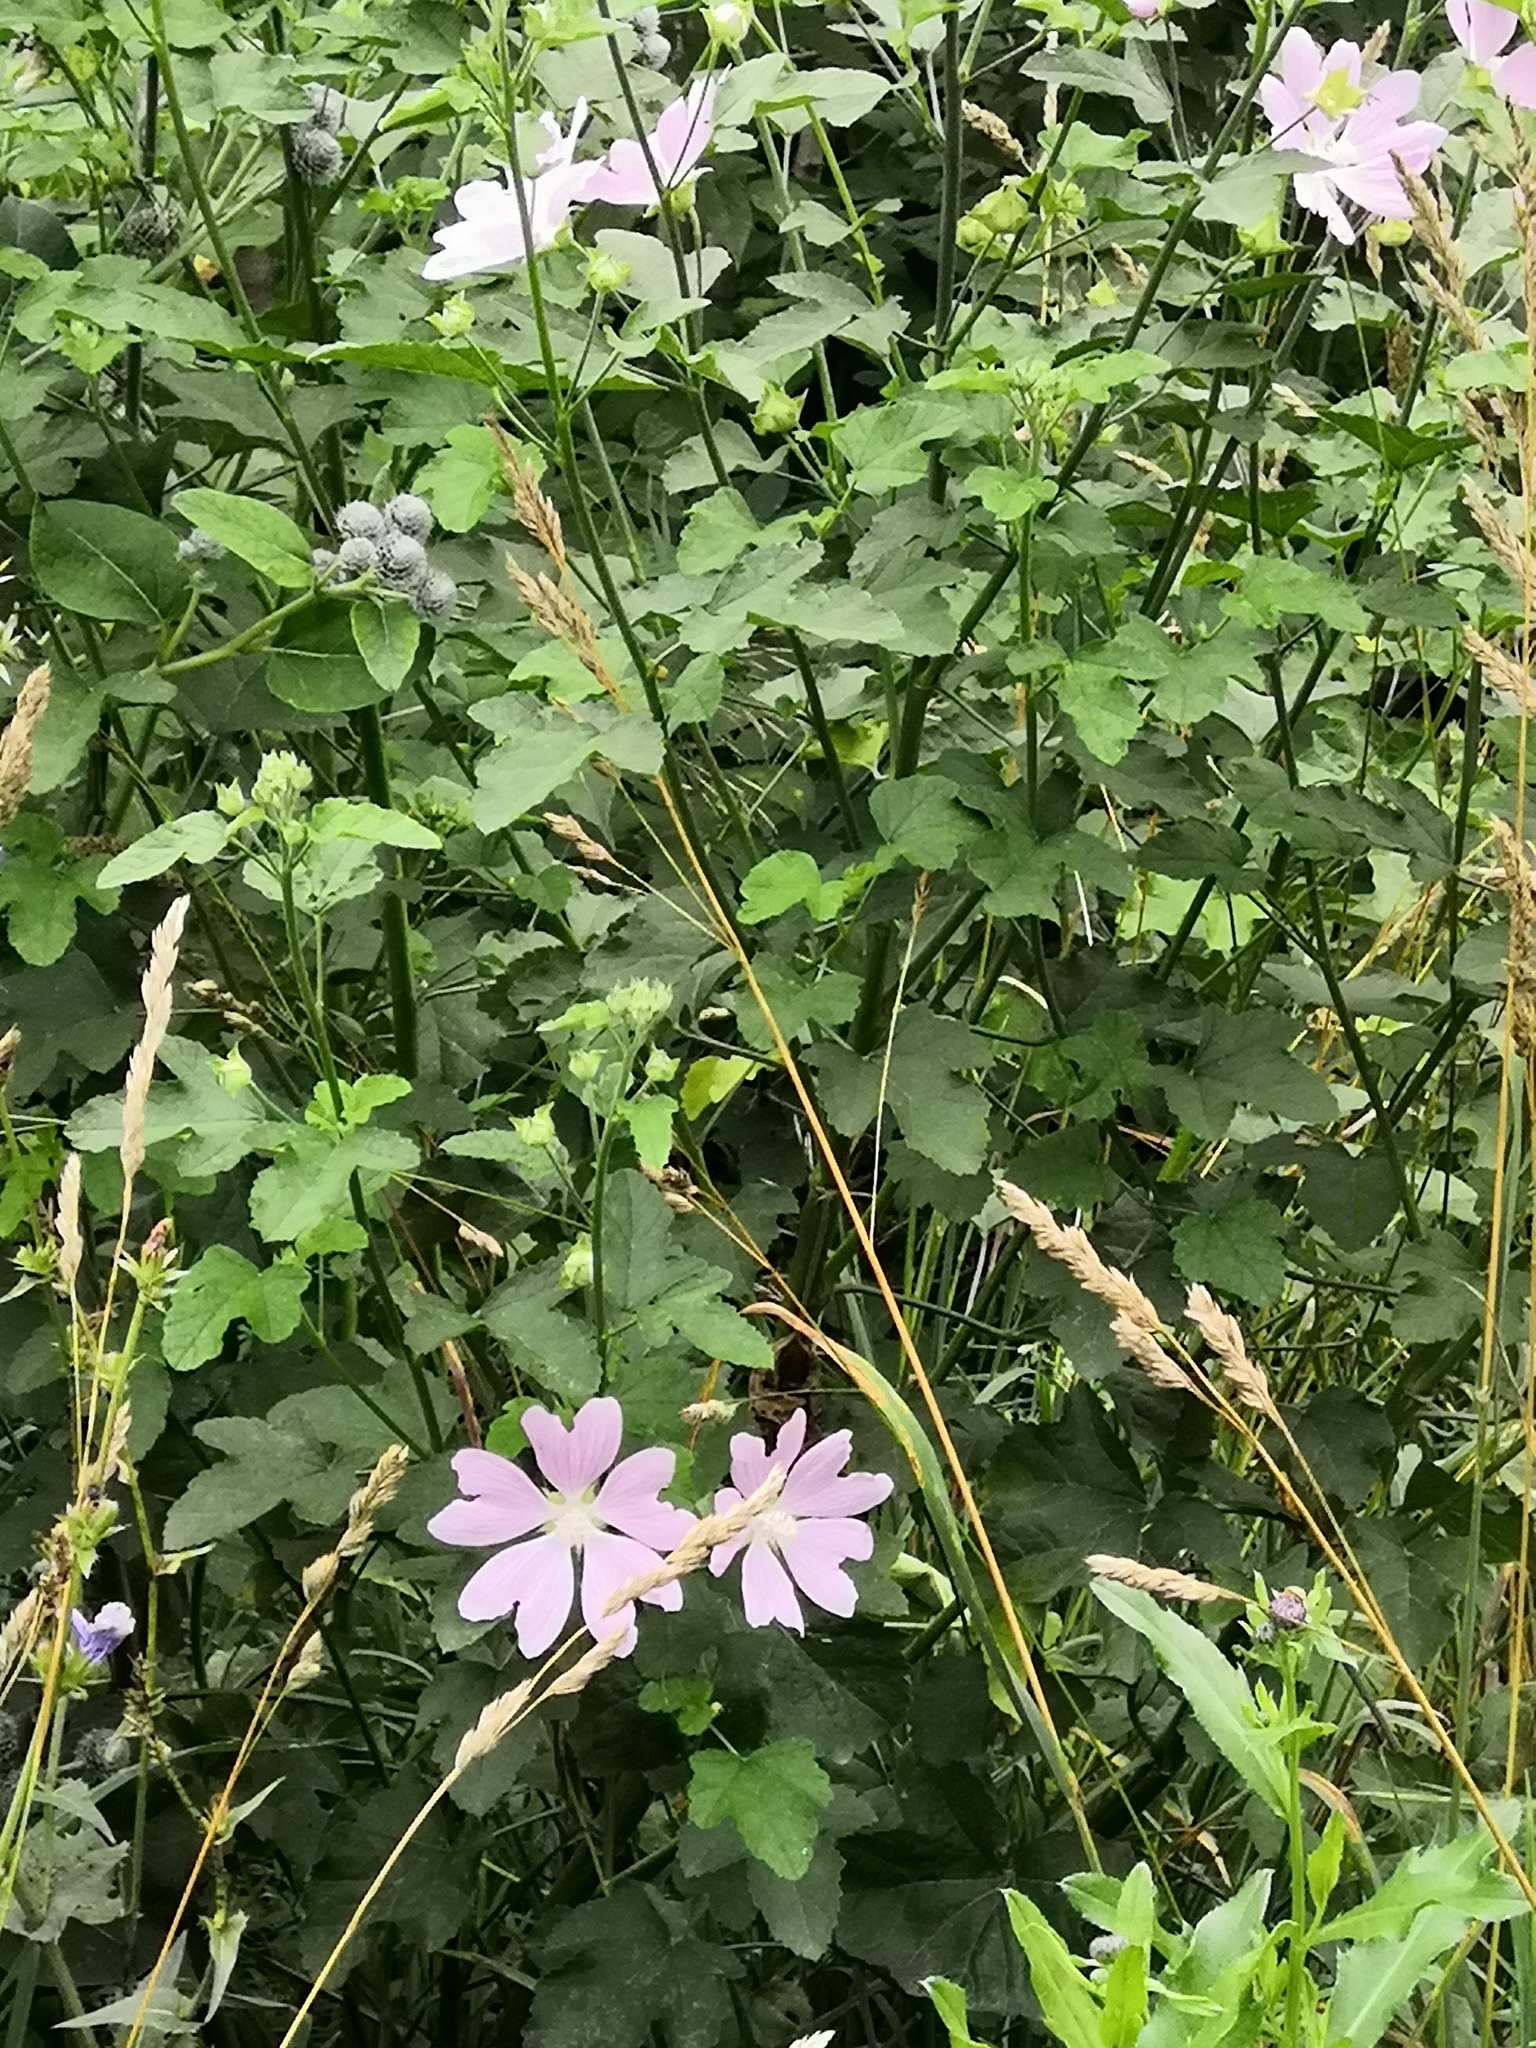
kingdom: Plantae
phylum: Tracheophyta
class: Magnoliopsida
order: Malvales
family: Malvaceae
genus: Malva
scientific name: Malva thuringiaca
